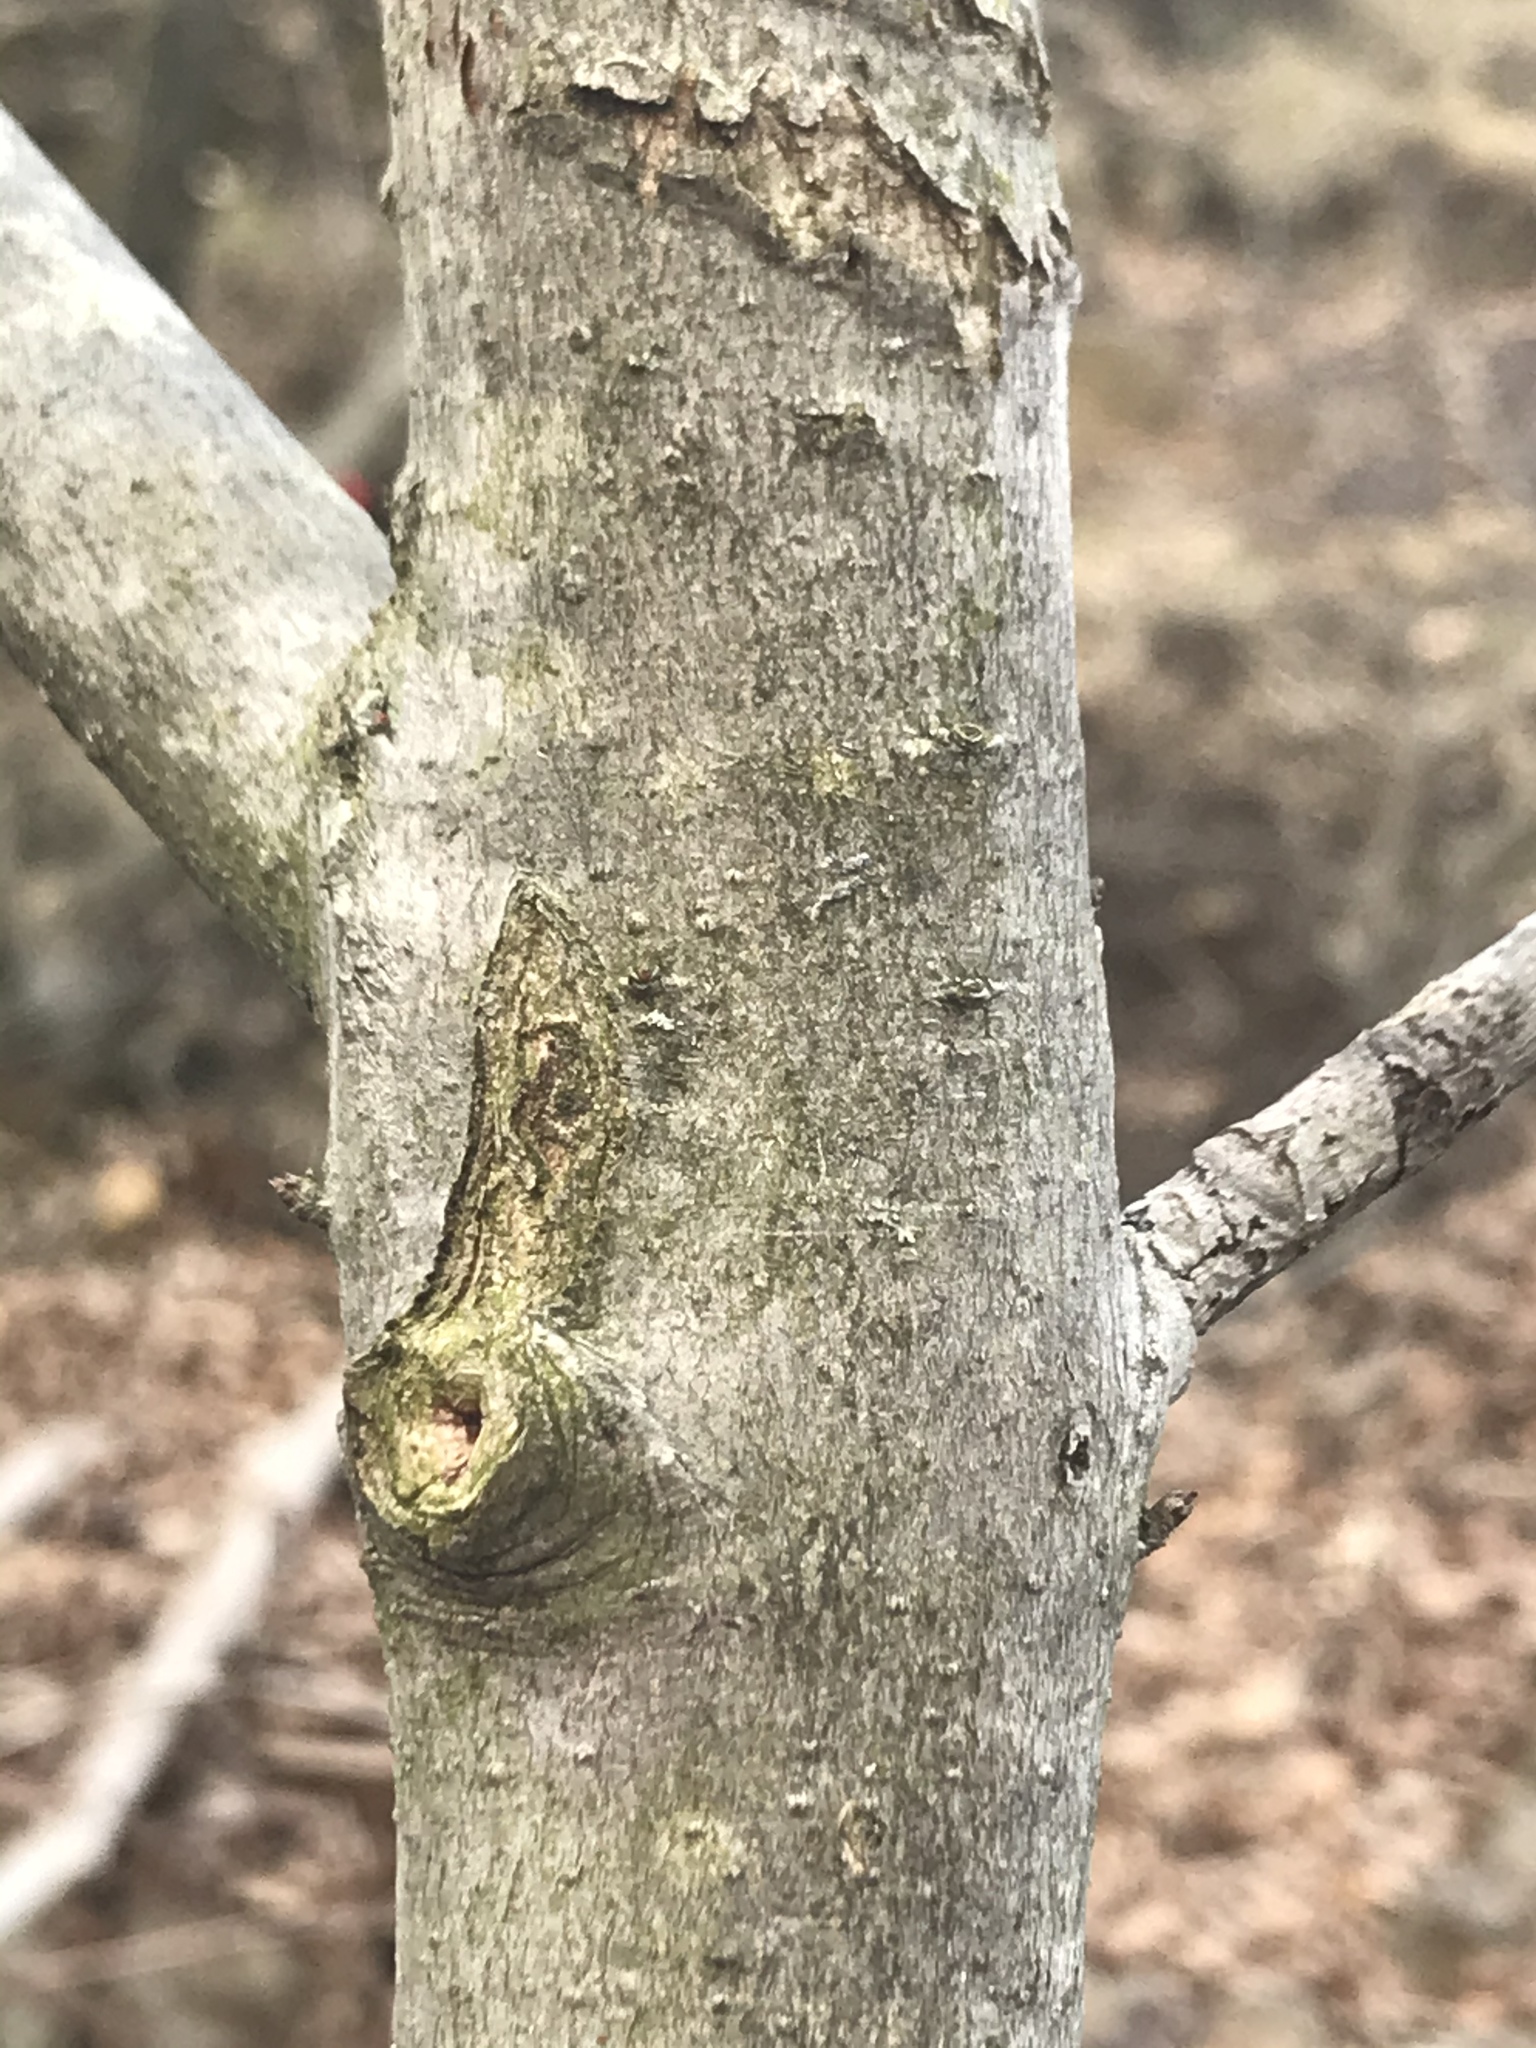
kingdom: Plantae
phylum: Tracheophyta
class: Magnoliopsida
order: Sapindales
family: Sapindaceae
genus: Acer
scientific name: Acer rubrum
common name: Red maple
